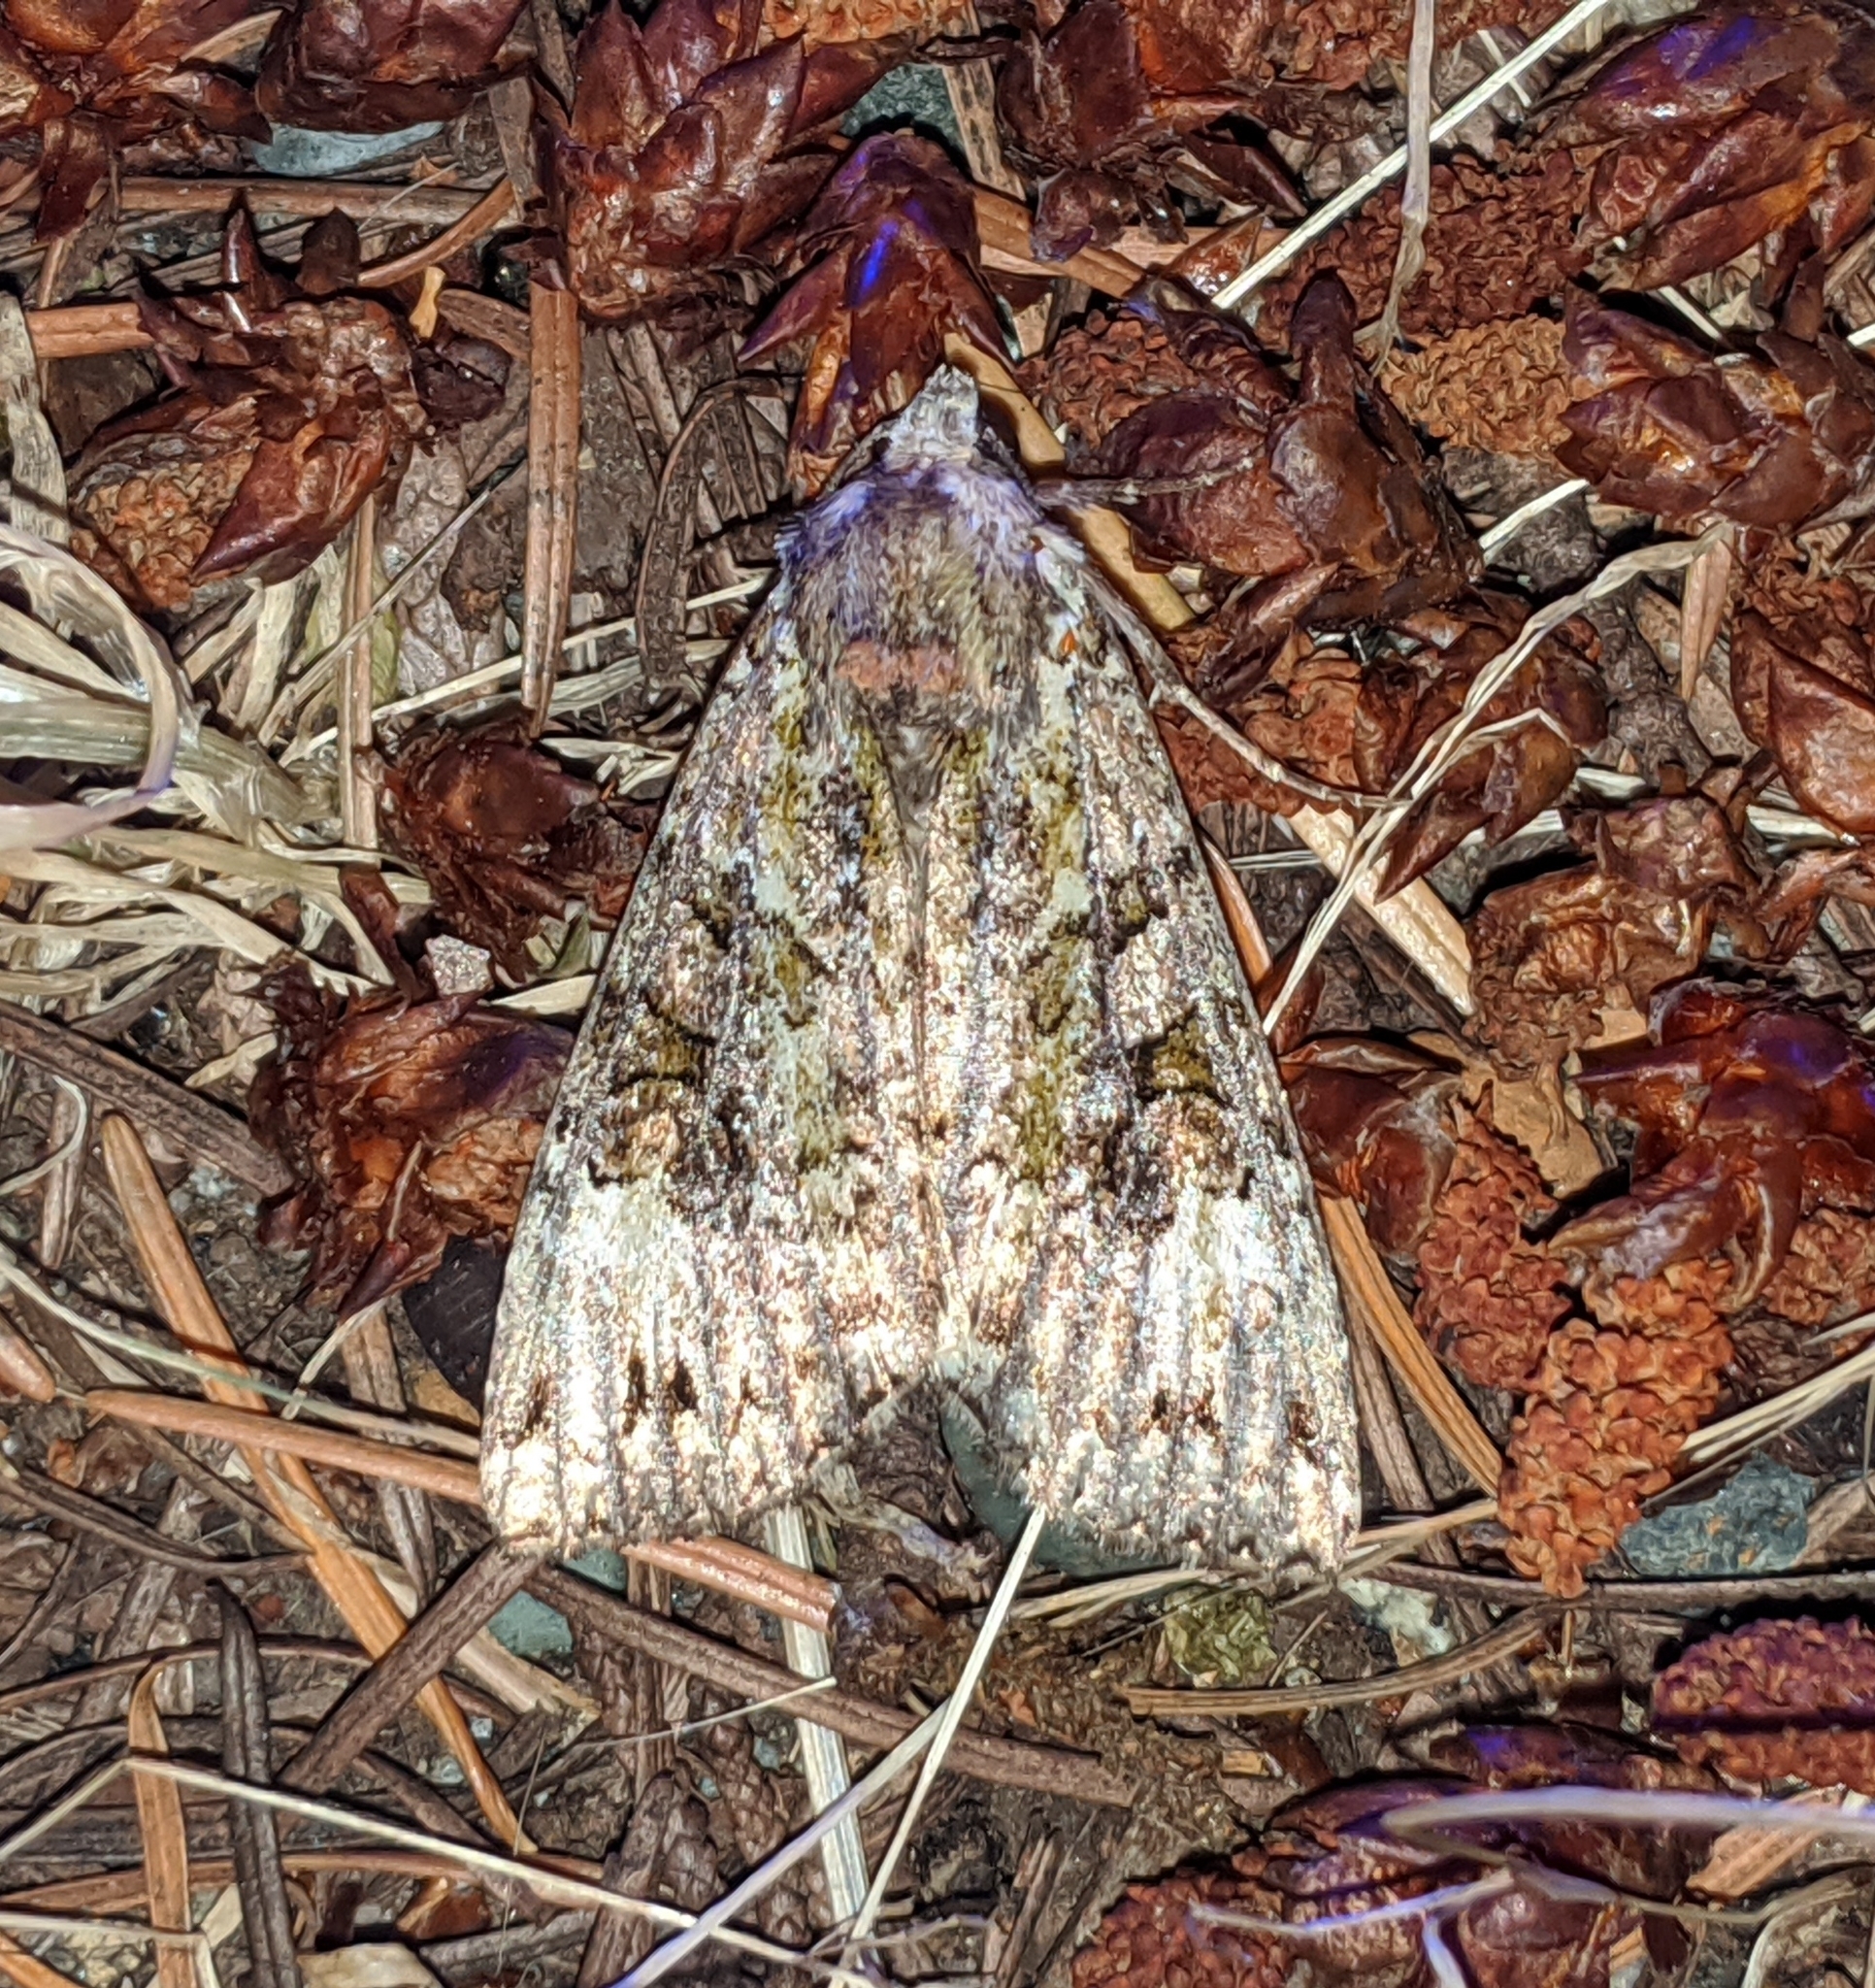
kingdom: Animalia
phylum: Arthropoda
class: Insecta
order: Lepidoptera
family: Noctuidae
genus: Anaplectoides
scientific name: Anaplectoides prasina
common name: Green arches
